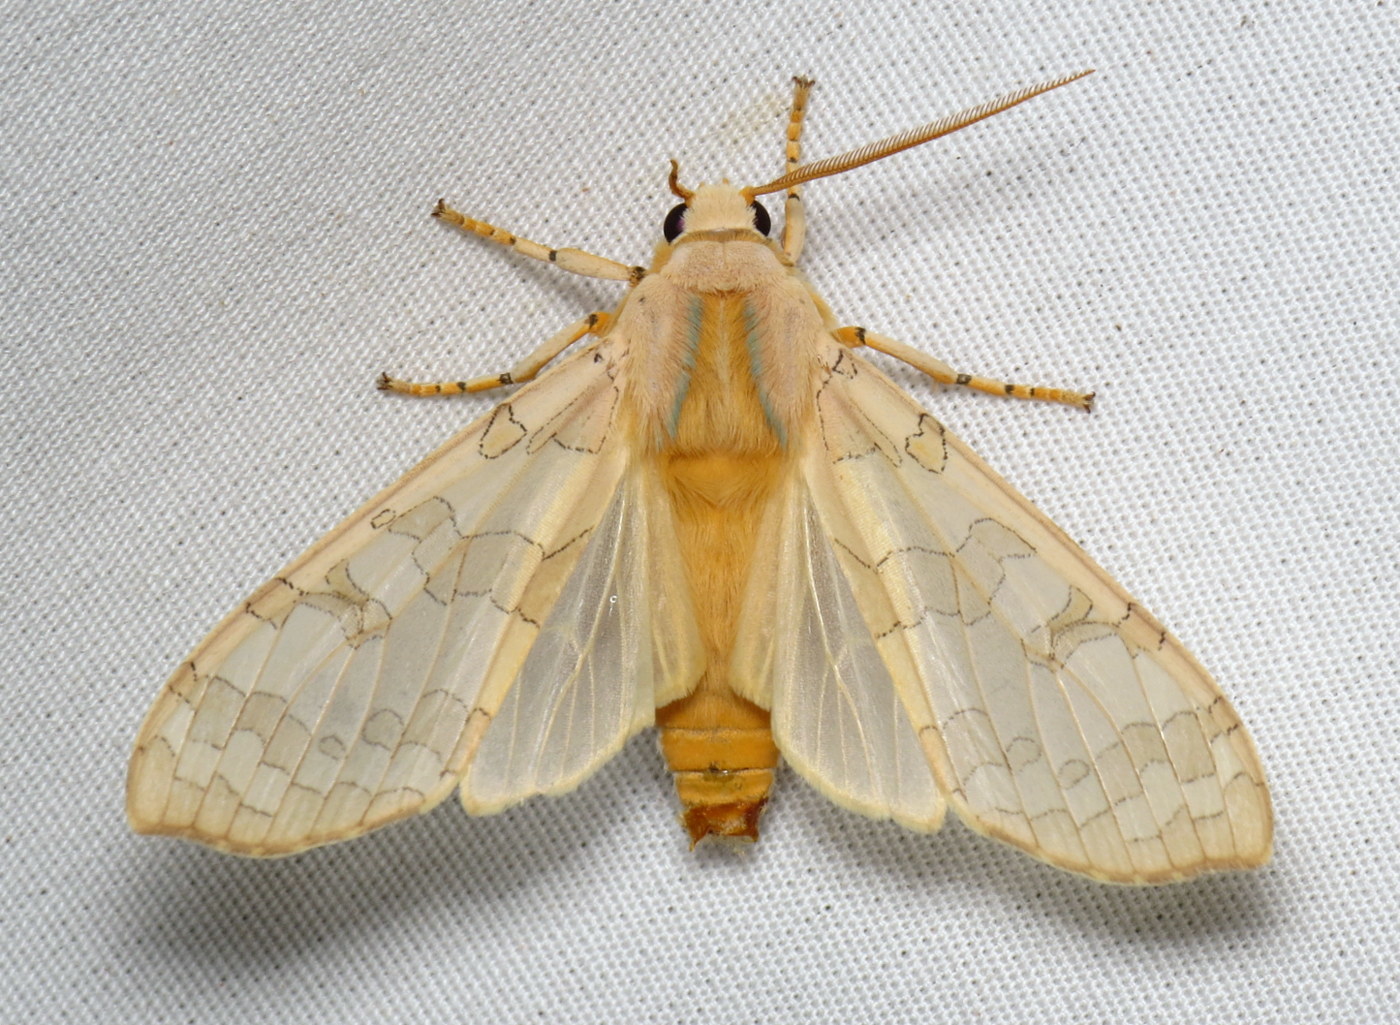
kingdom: Animalia
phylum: Arthropoda
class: Insecta
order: Lepidoptera
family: Erebidae
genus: Halysidota
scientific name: Halysidota
